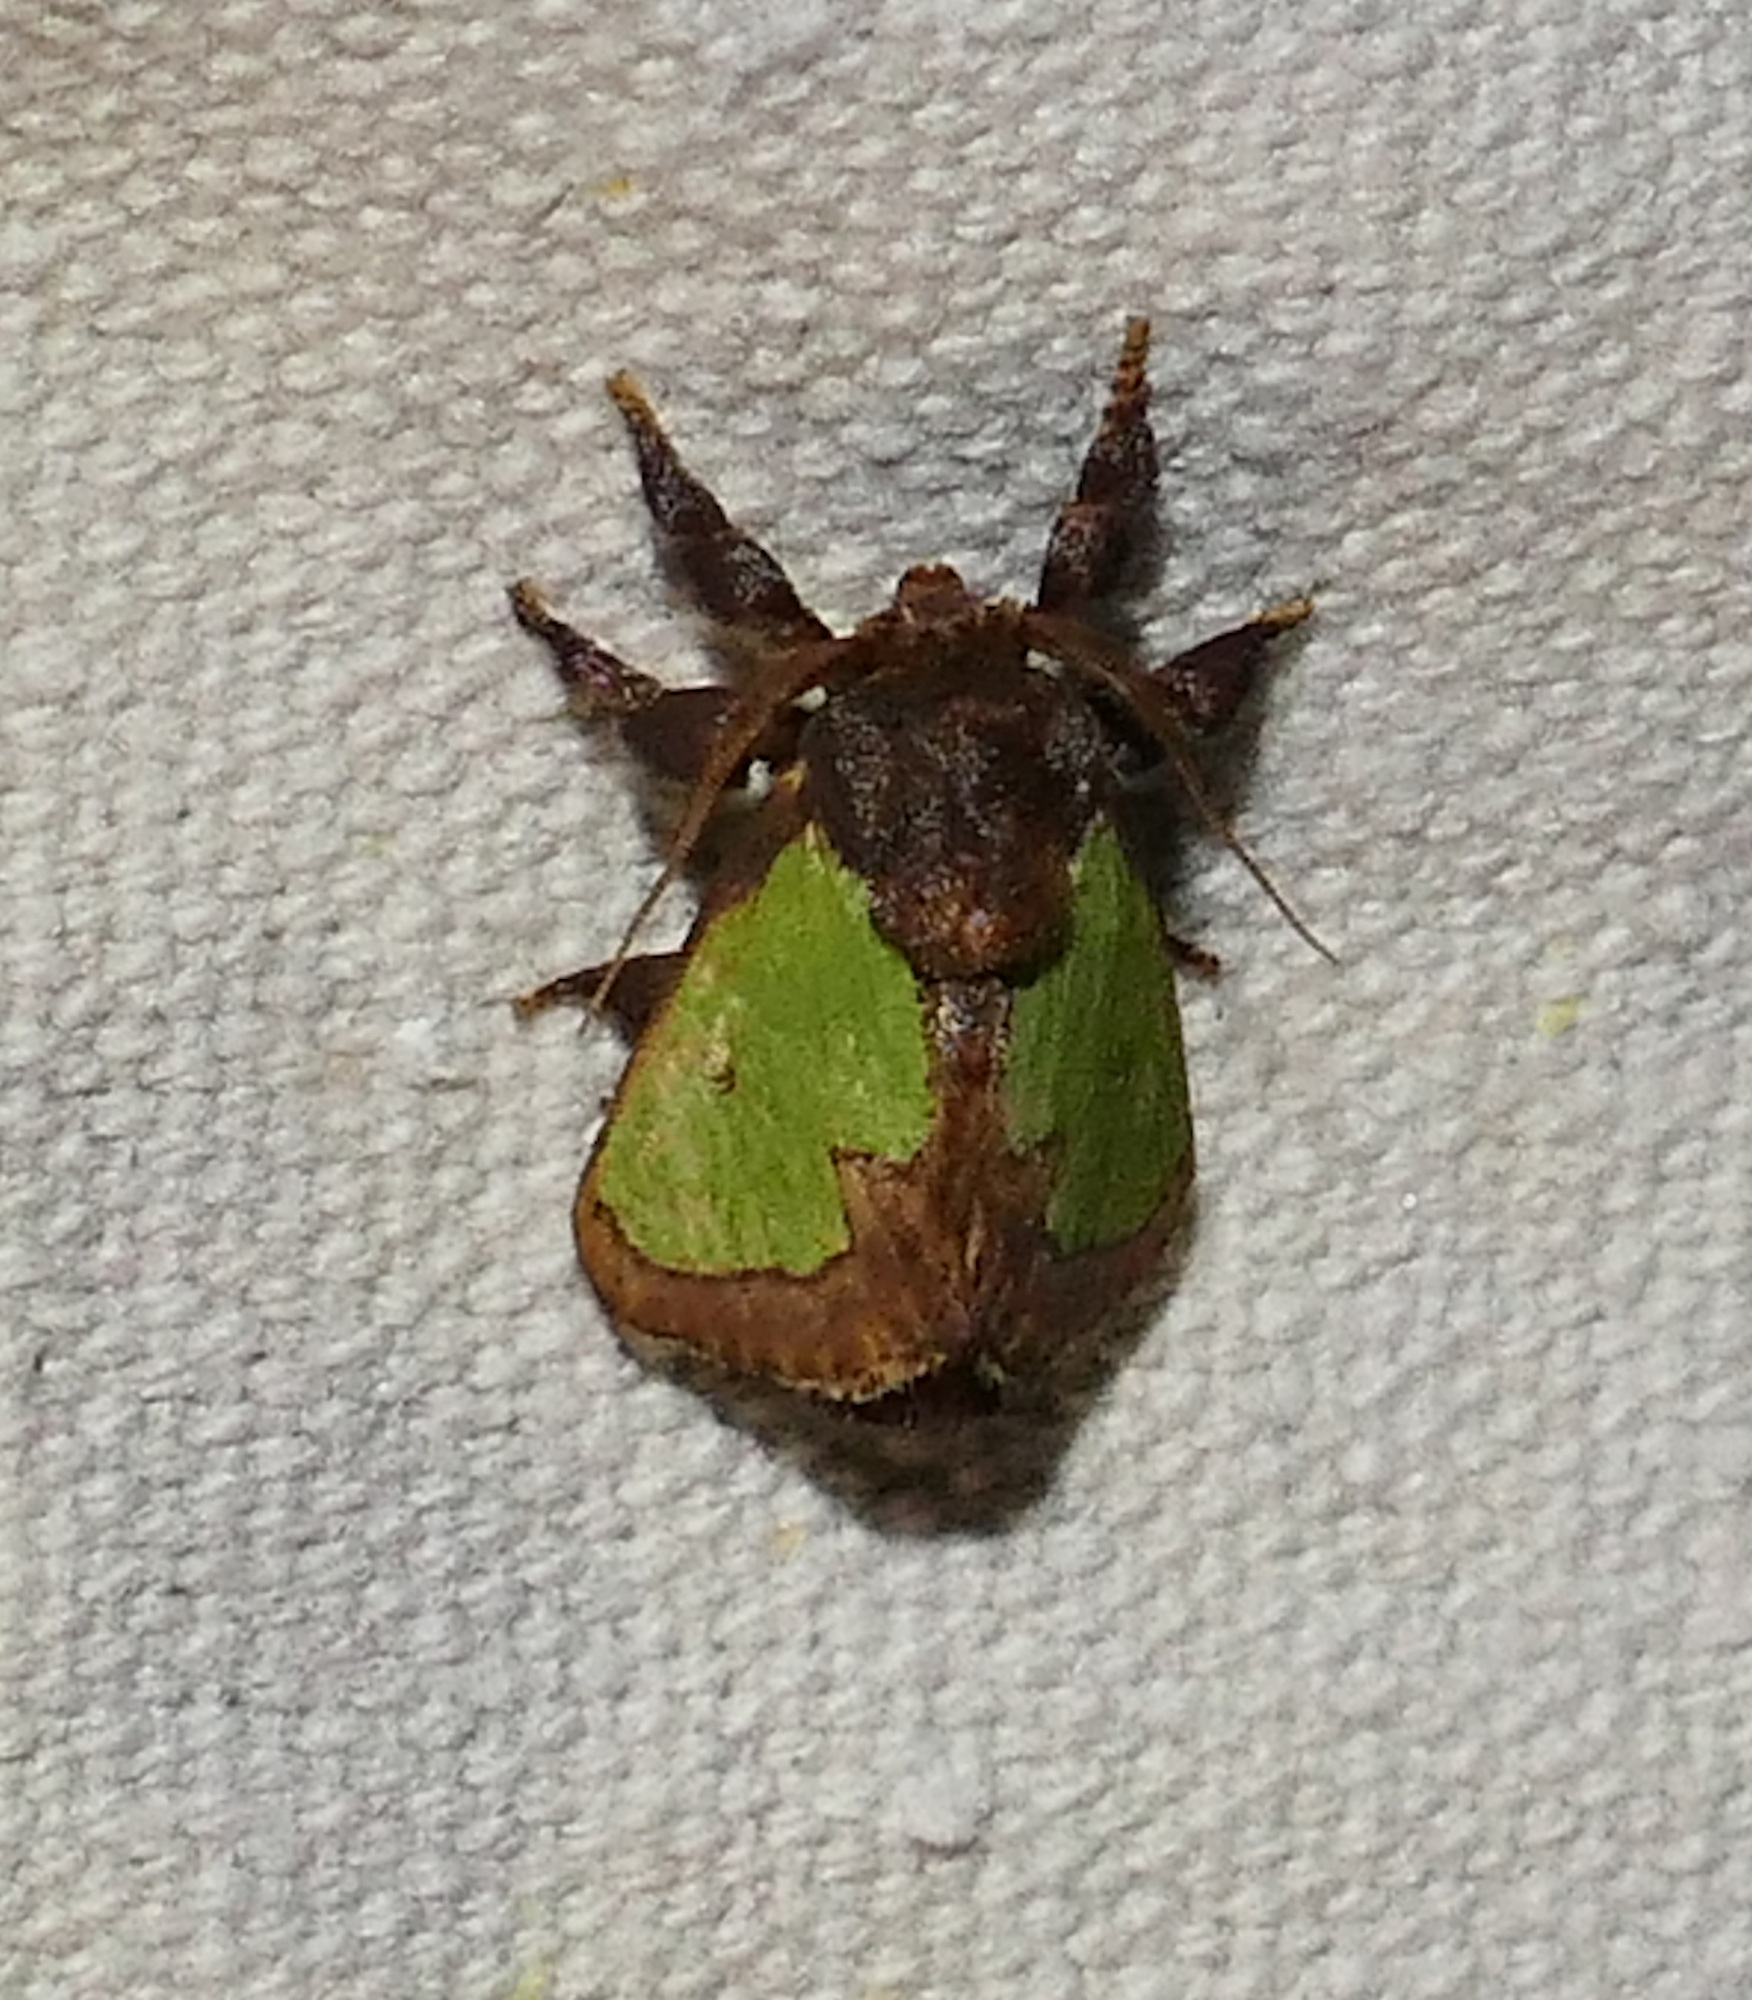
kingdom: Animalia
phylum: Arthropoda
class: Insecta
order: Lepidoptera
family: Limacodidae
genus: Euclea
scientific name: Euclea
